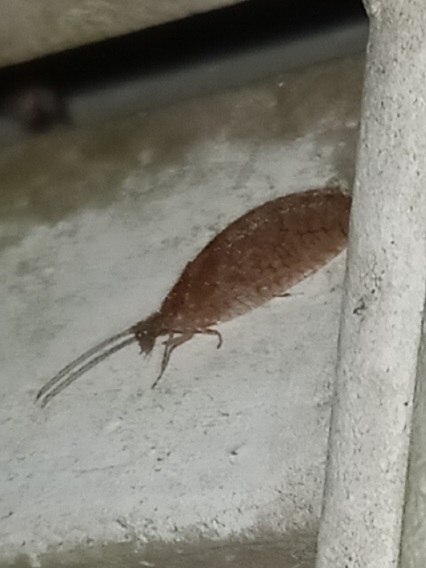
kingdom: Animalia
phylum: Arthropoda
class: Insecta
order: Neuroptera
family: Hemerobiidae
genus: Micromus
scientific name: Micromus posticus
